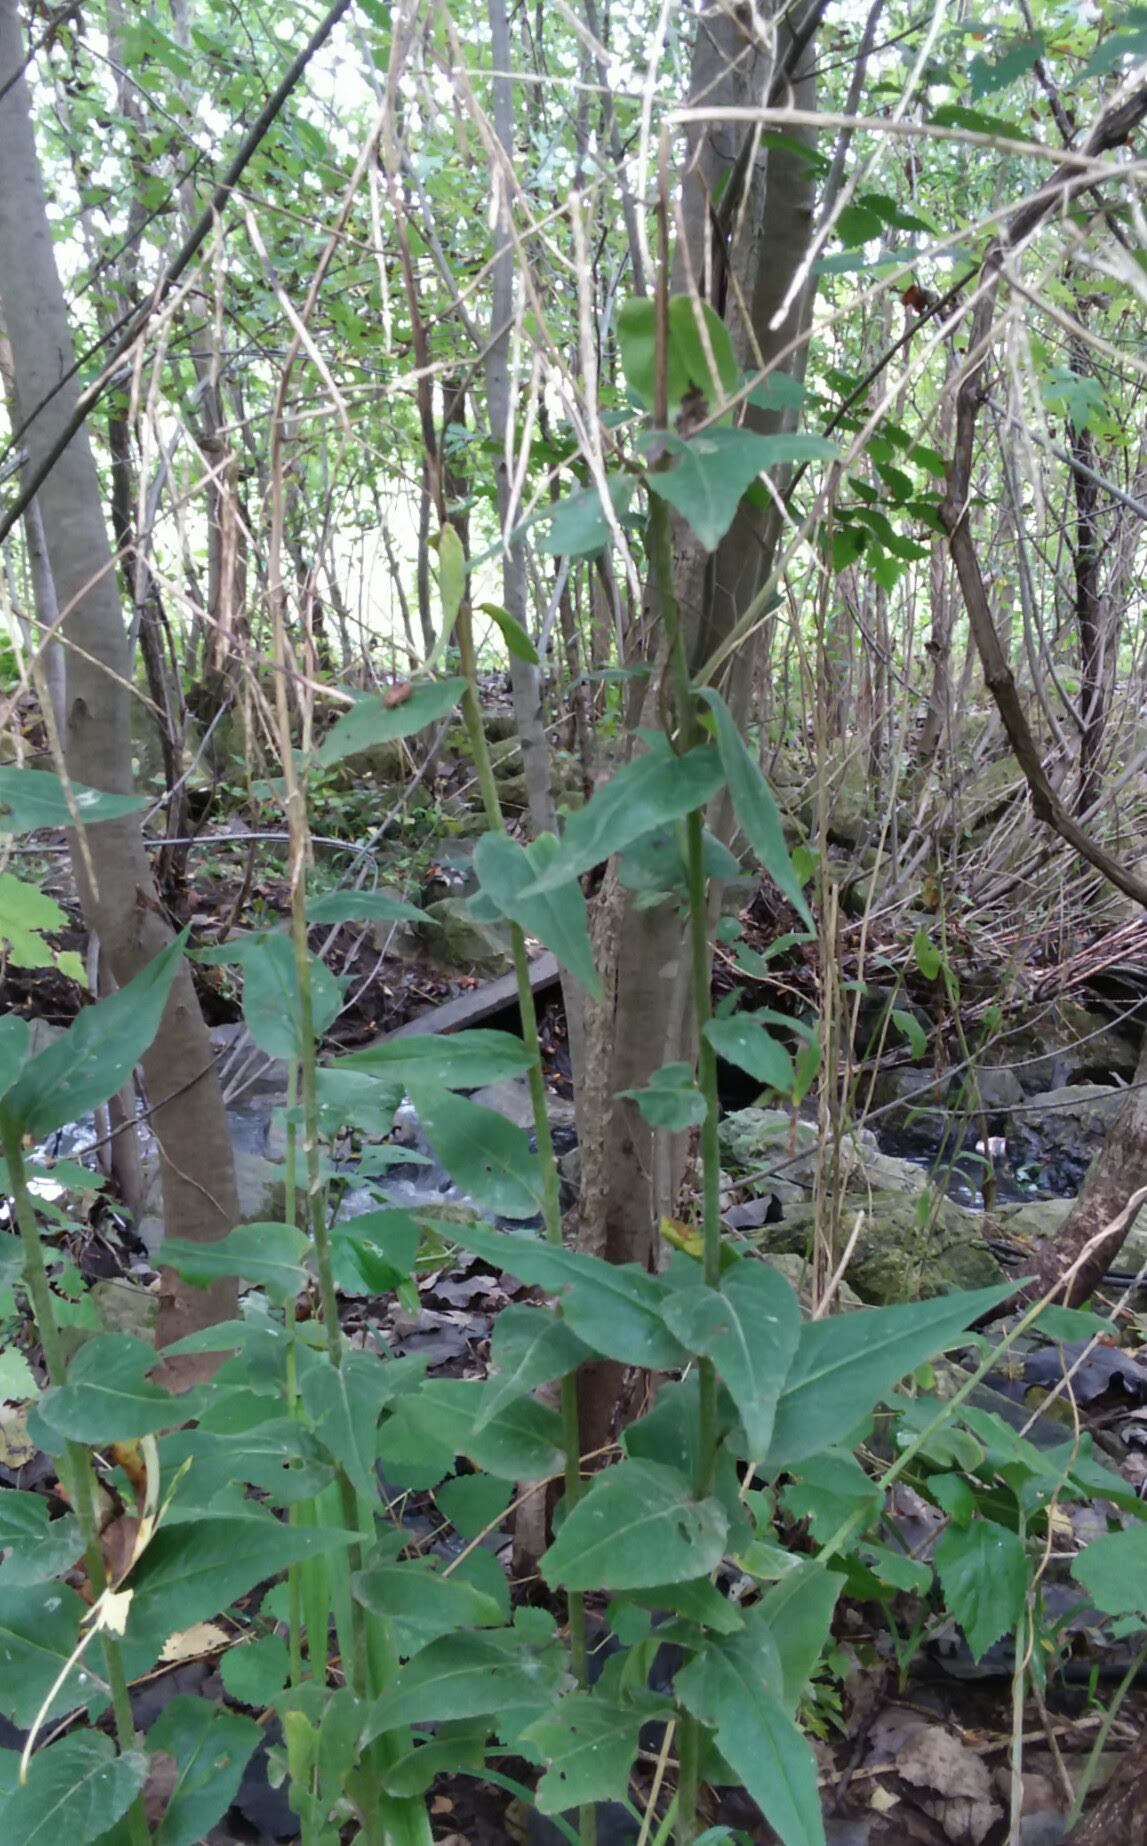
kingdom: Plantae
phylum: Tracheophyta
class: Magnoliopsida
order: Brassicales
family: Brassicaceae
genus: Hesperis
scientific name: Hesperis matronalis
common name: Dame's-violet
